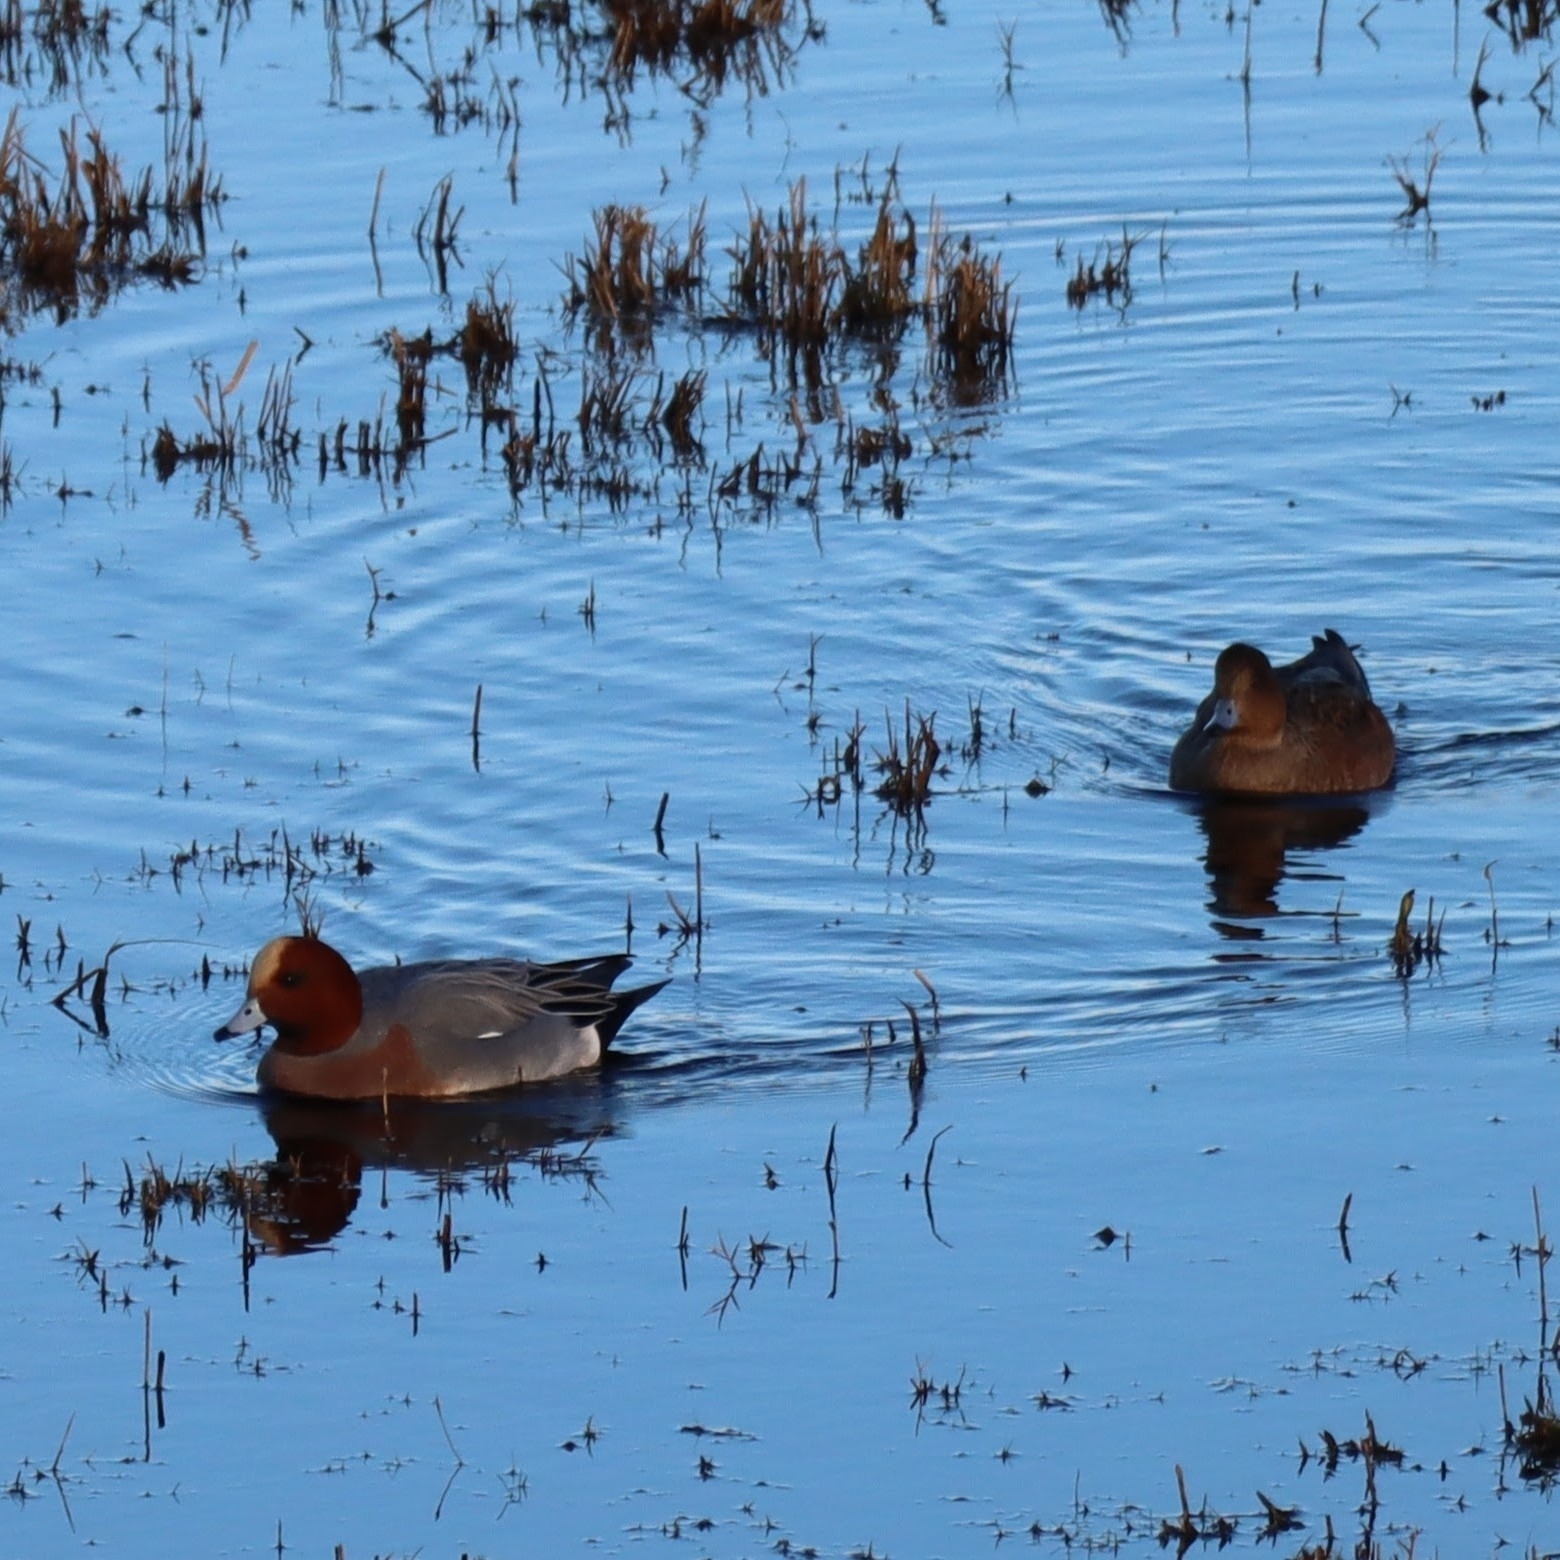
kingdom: Animalia
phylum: Chordata
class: Aves
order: Anseriformes
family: Anatidae
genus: Mareca
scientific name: Mareca penelope
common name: Eurasian wigeon
